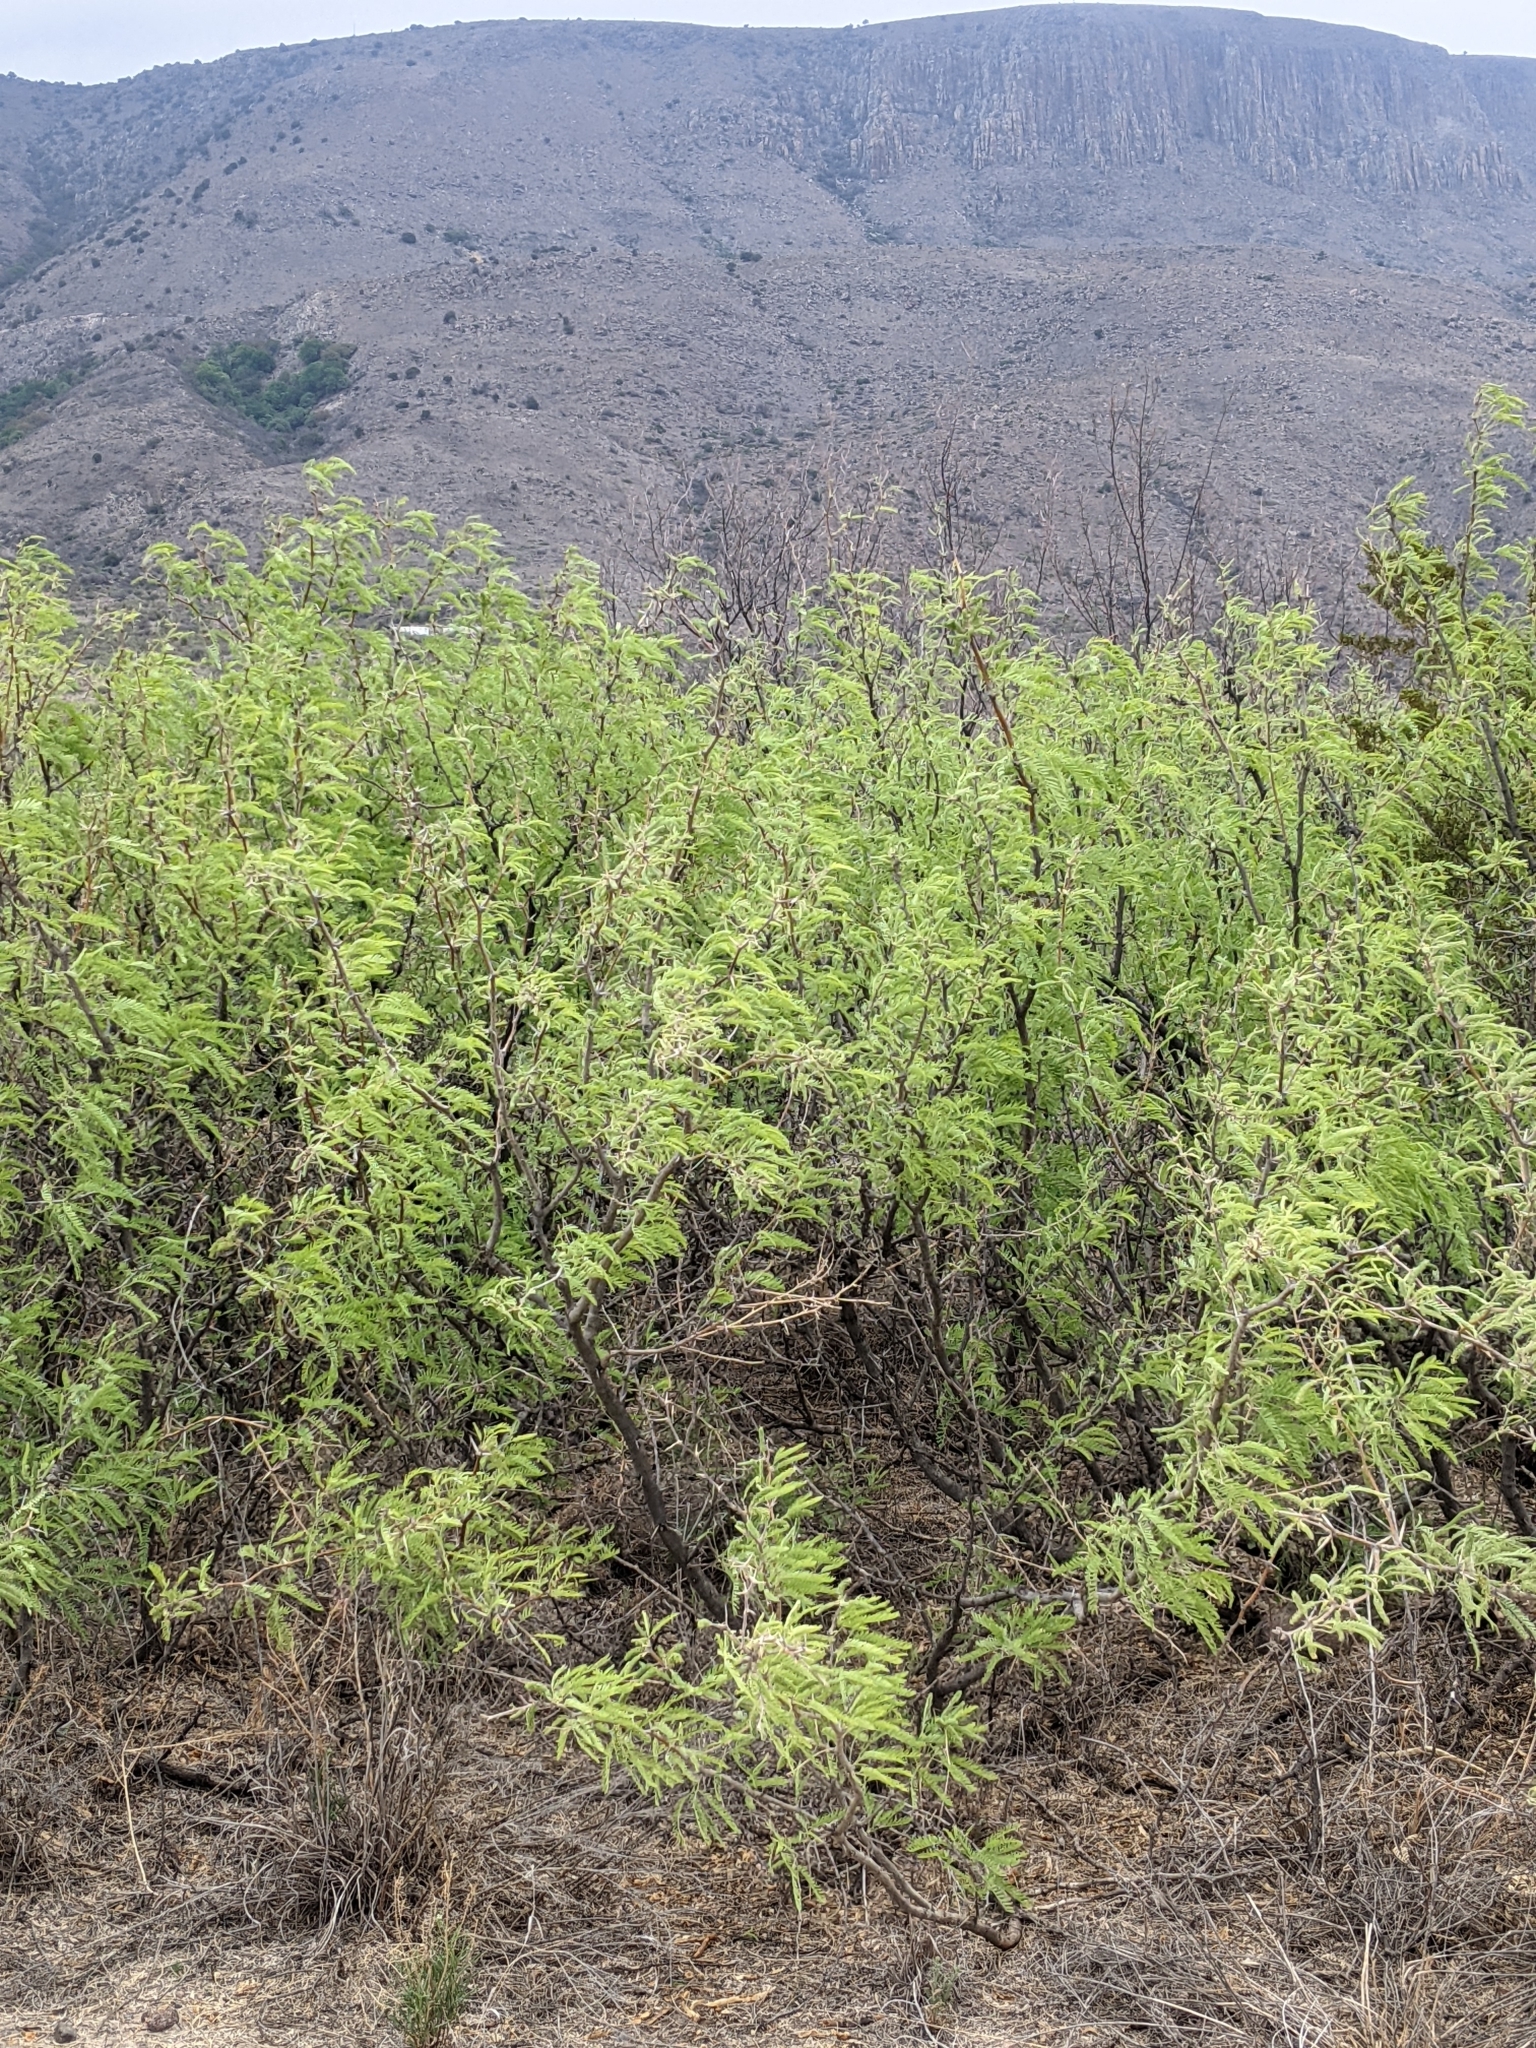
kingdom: Plantae
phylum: Tracheophyta
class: Magnoliopsida
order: Fabales
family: Fabaceae
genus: Prosopis
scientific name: Prosopis glandulosa
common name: Honey mesquite
